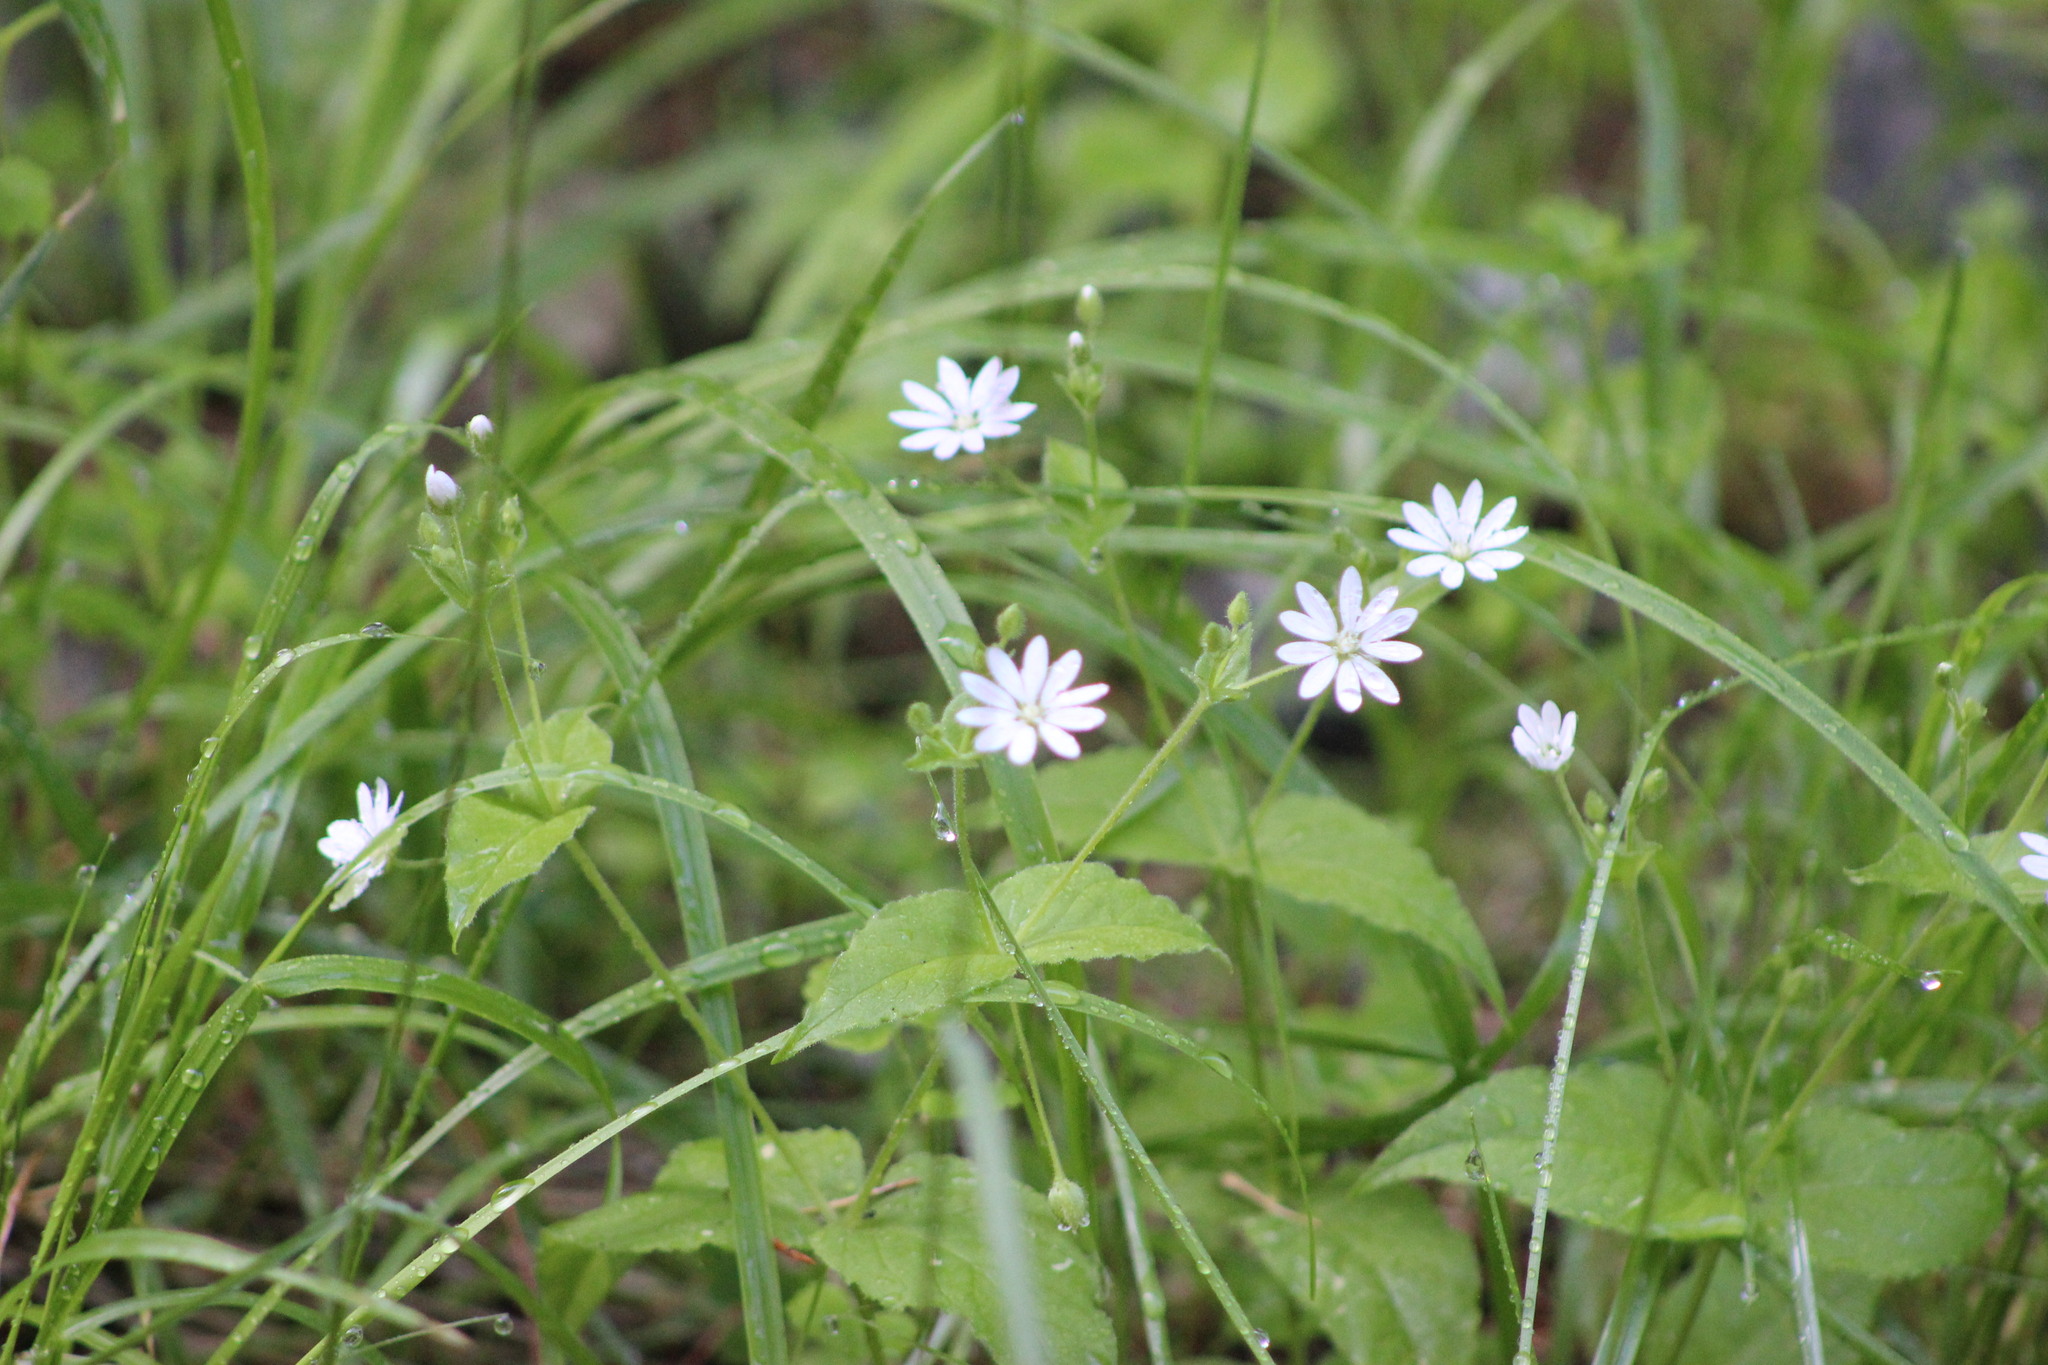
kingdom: Plantae
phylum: Tracheophyta
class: Magnoliopsida
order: Caryophyllales
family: Caryophyllaceae
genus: Stellaria
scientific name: Stellaria bungeana
